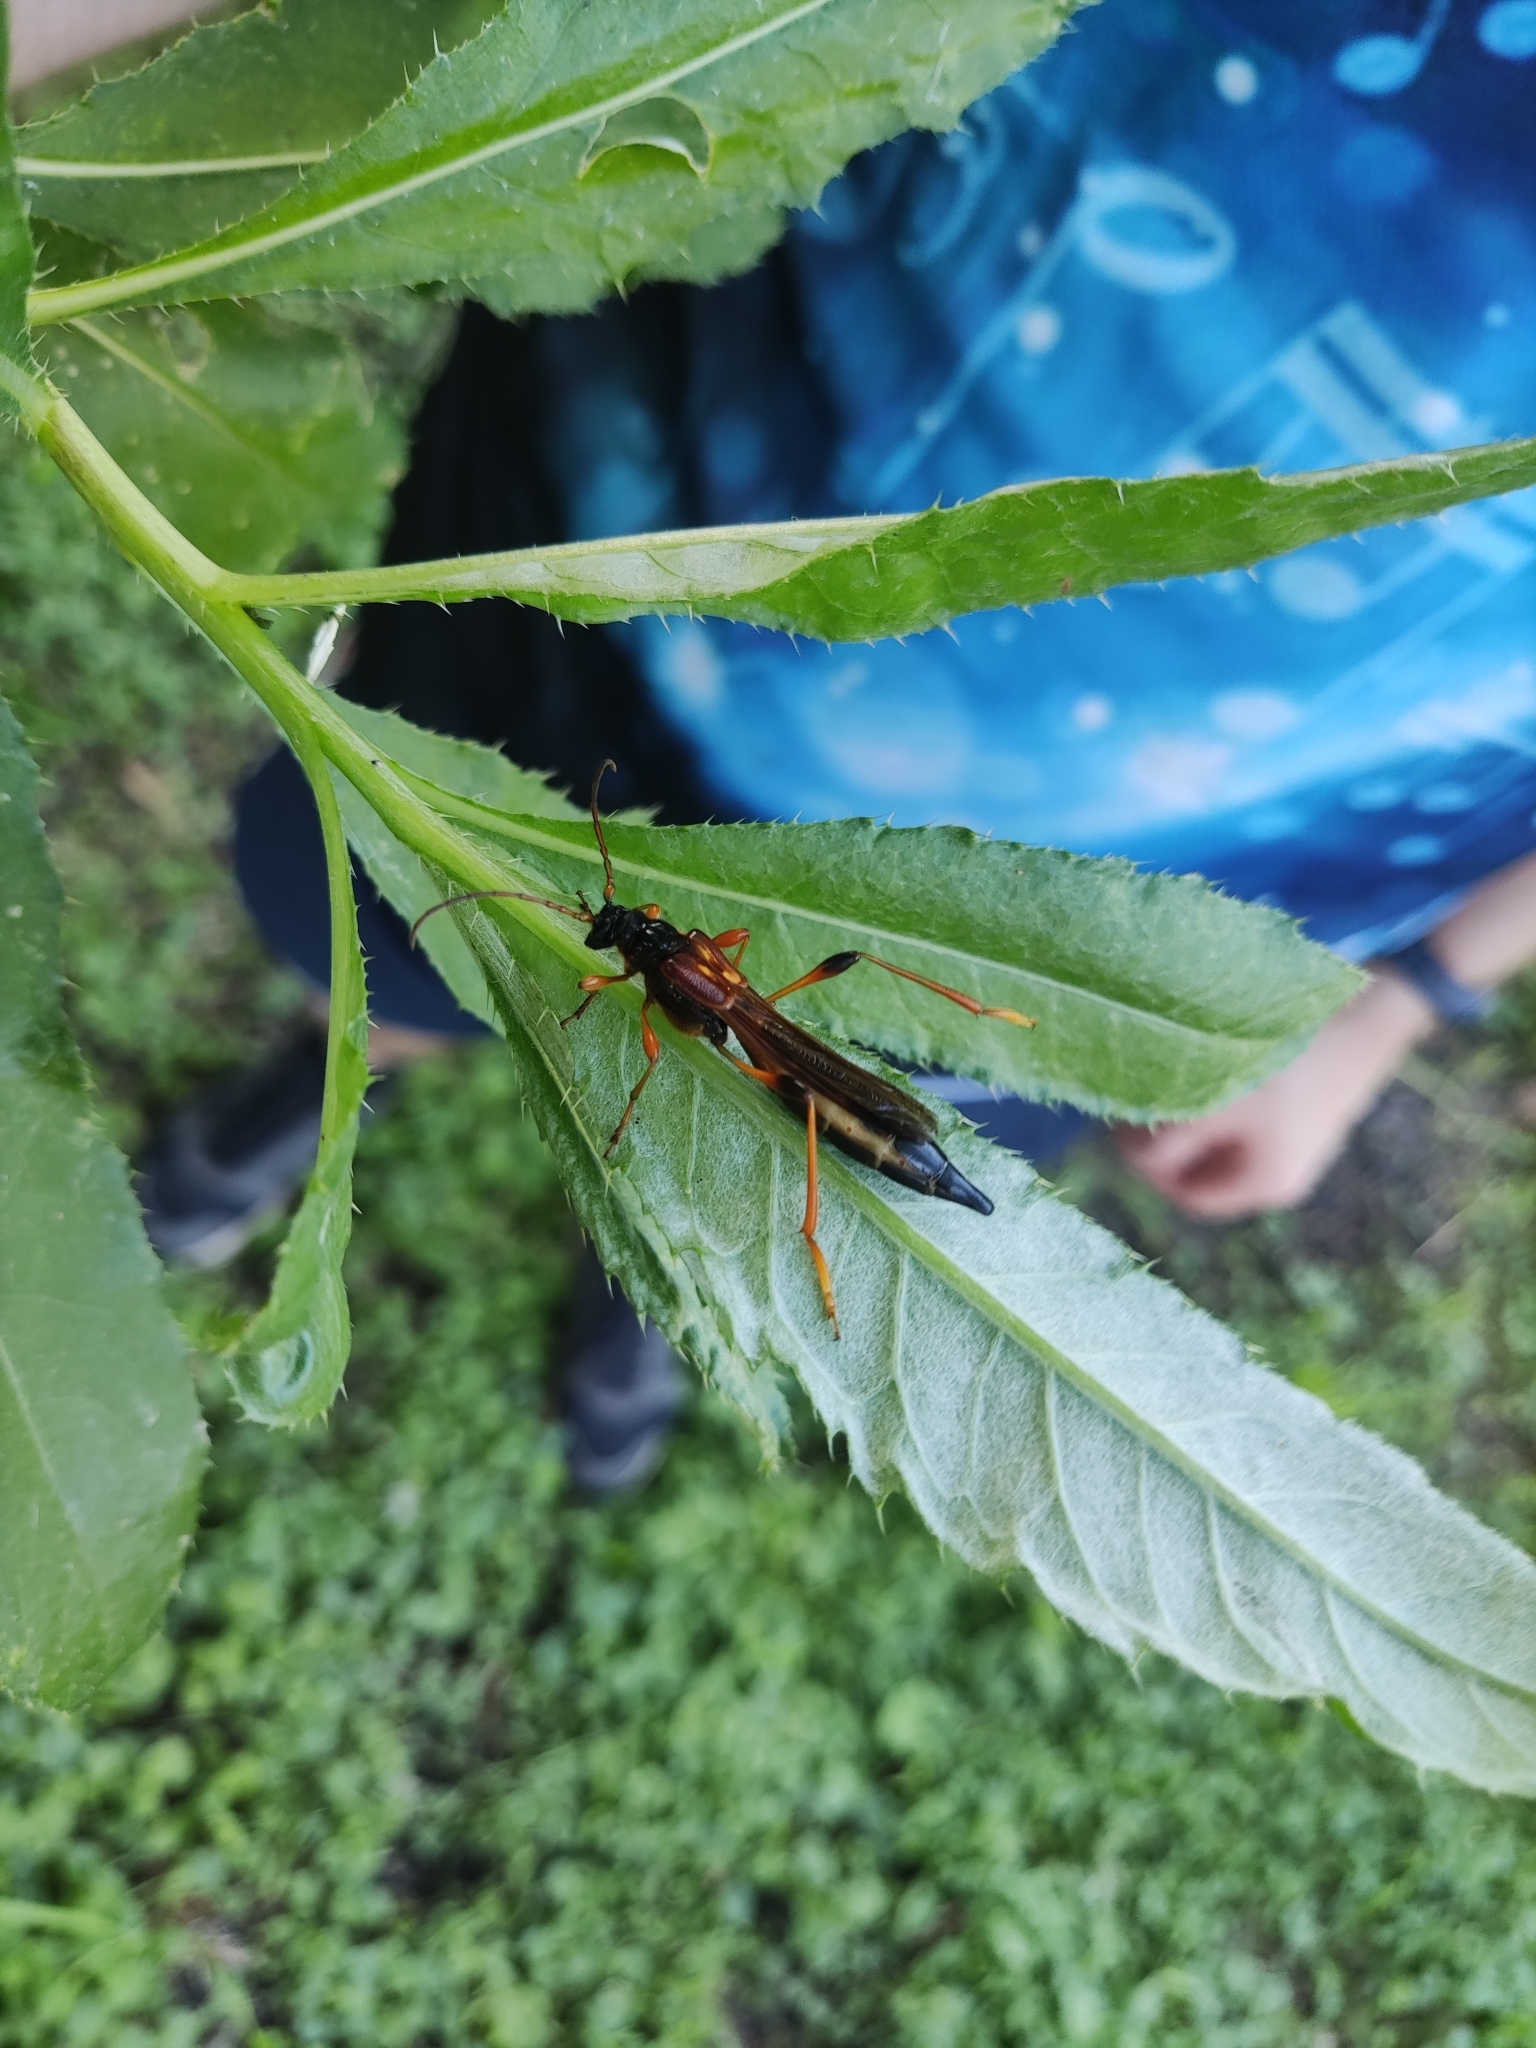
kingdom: Animalia
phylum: Arthropoda
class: Insecta
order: Coleoptera
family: Cerambycidae
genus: Necydalis
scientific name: Necydalis major
